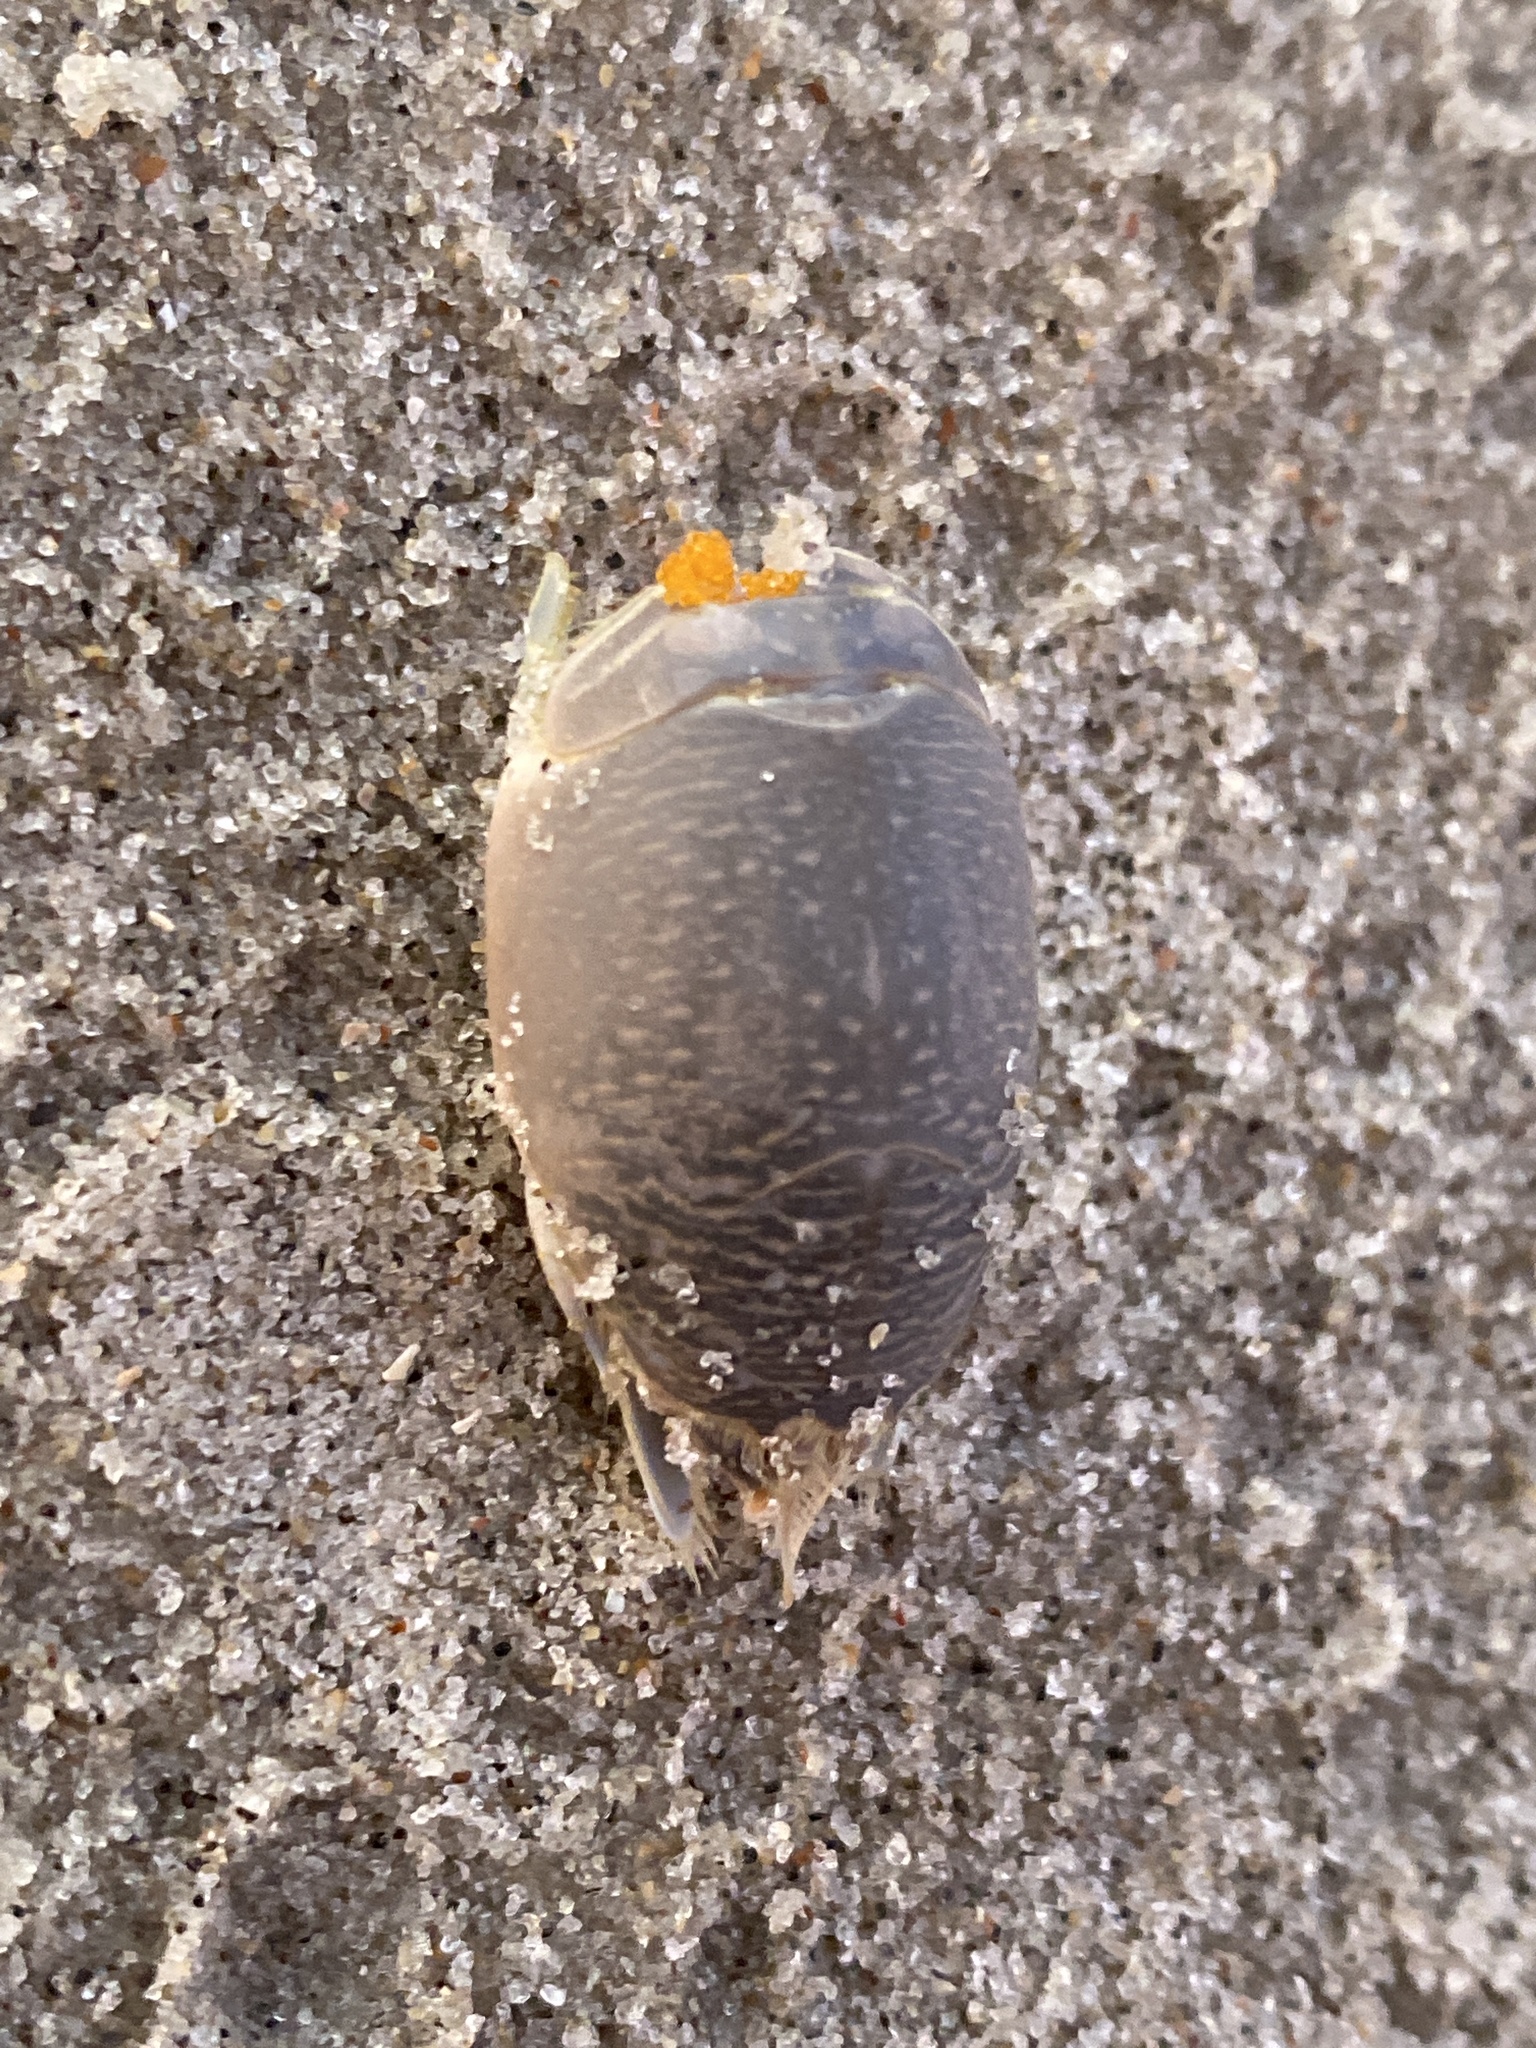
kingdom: Animalia
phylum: Arthropoda
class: Malacostraca
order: Decapoda
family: Hippidae
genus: Emerita
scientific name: Emerita talpoida
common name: Atlantic sand crab
